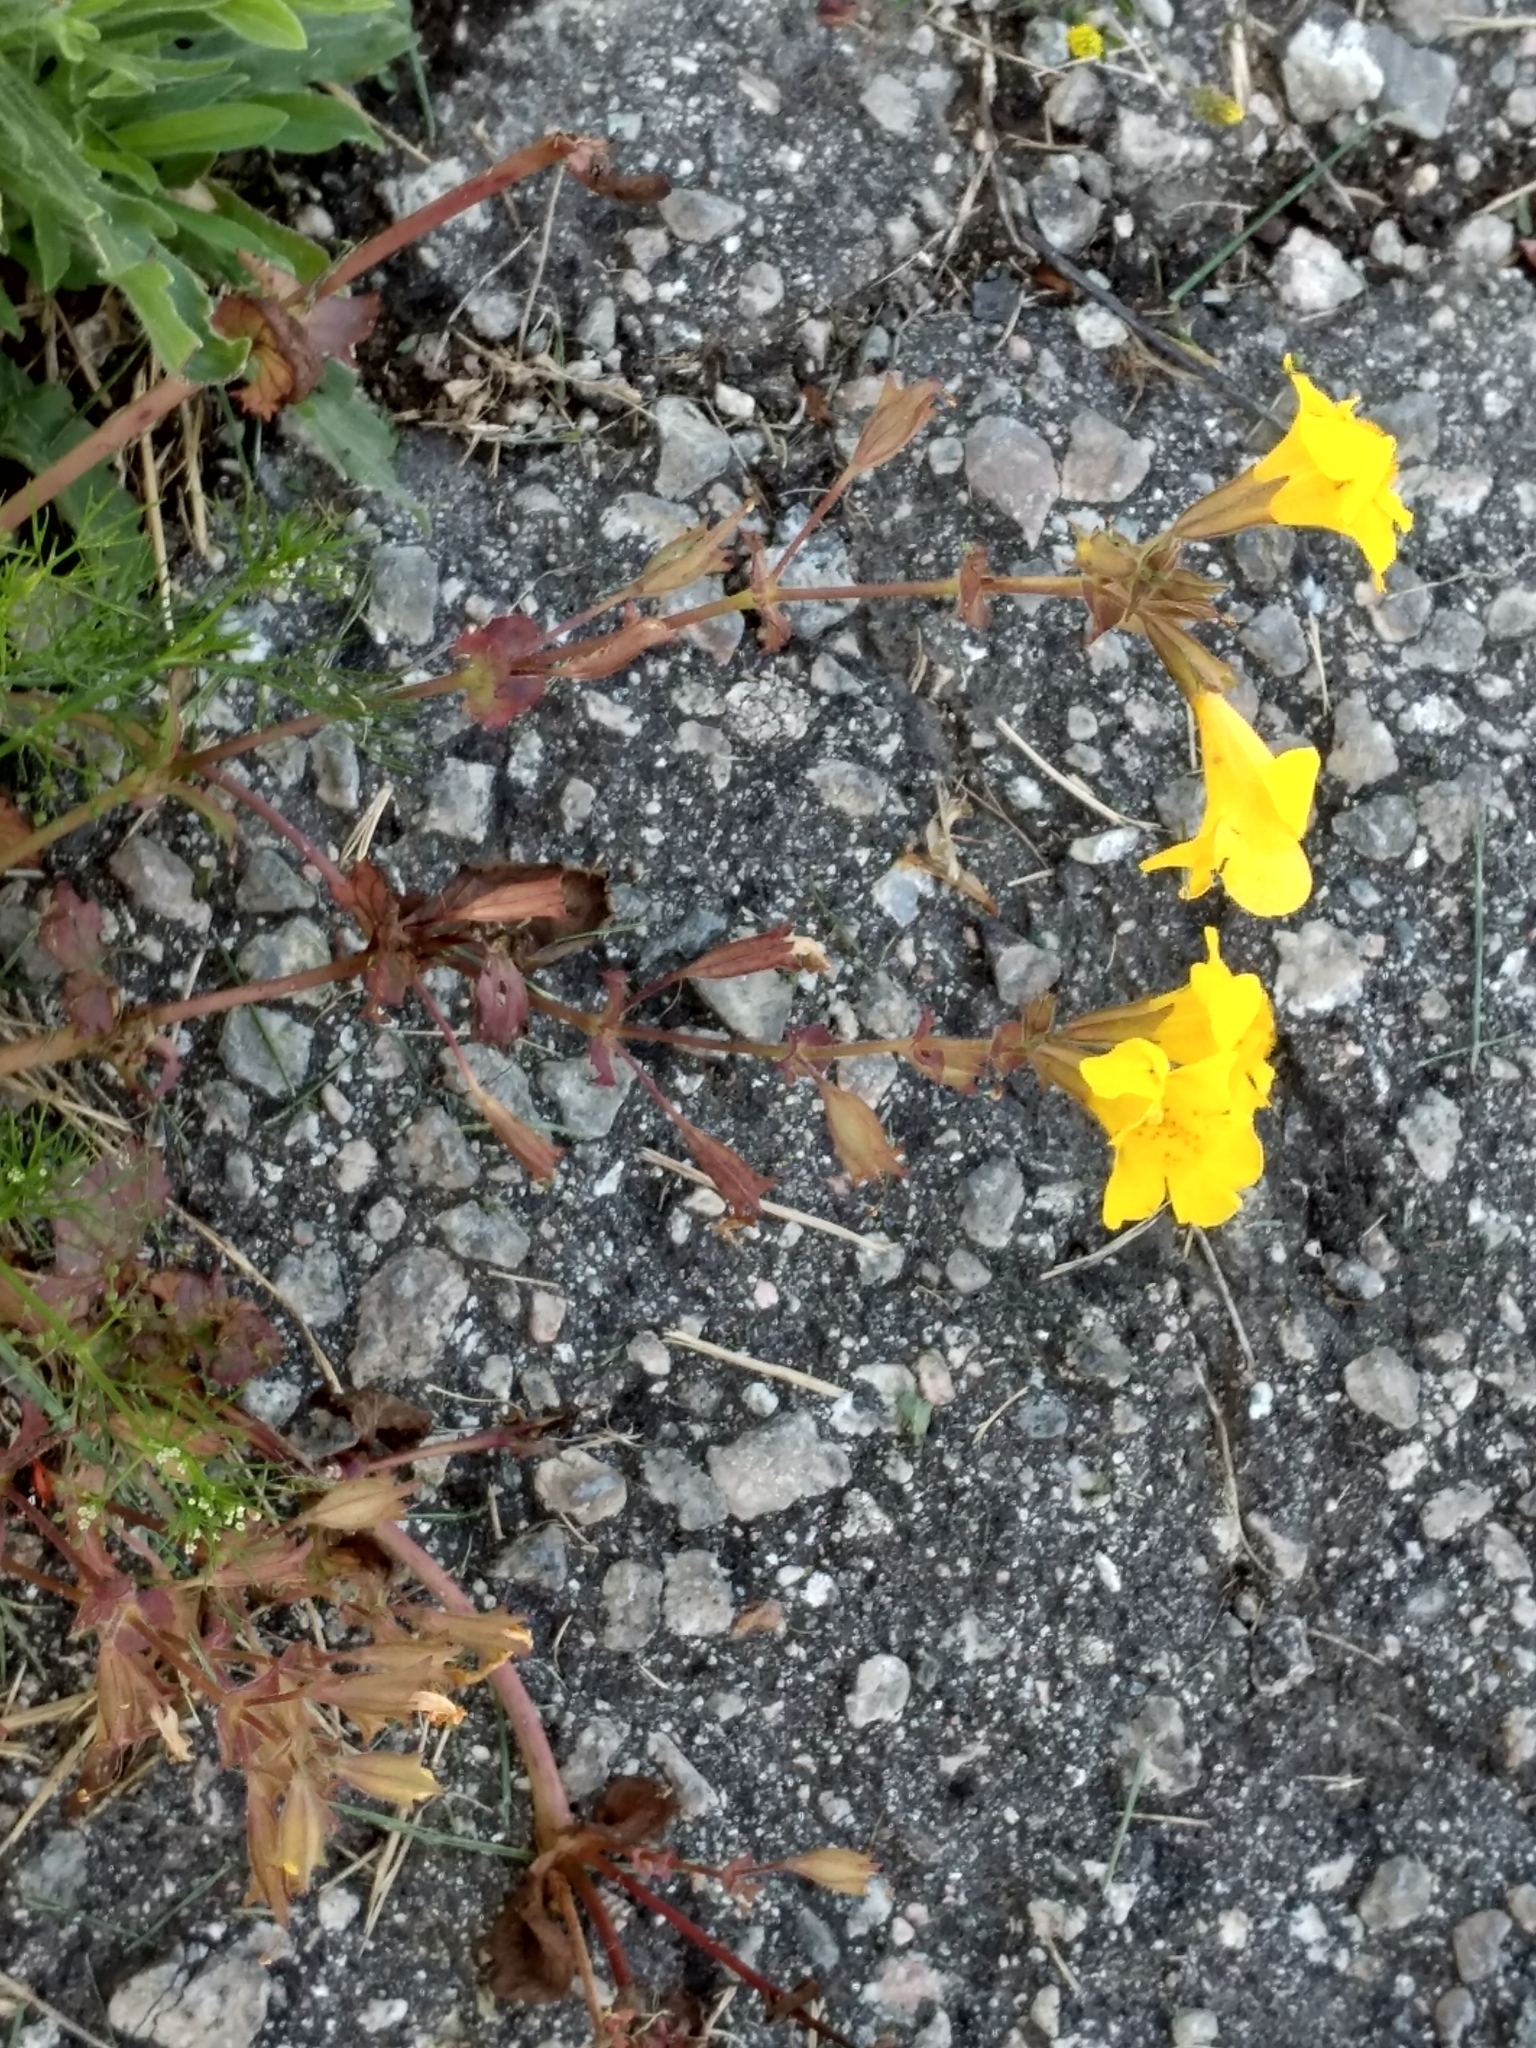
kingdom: Plantae
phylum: Tracheophyta
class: Magnoliopsida
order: Lamiales
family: Phrymaceae
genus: Erythranthe
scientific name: Erythranthe guttata
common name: Monkeyflower
